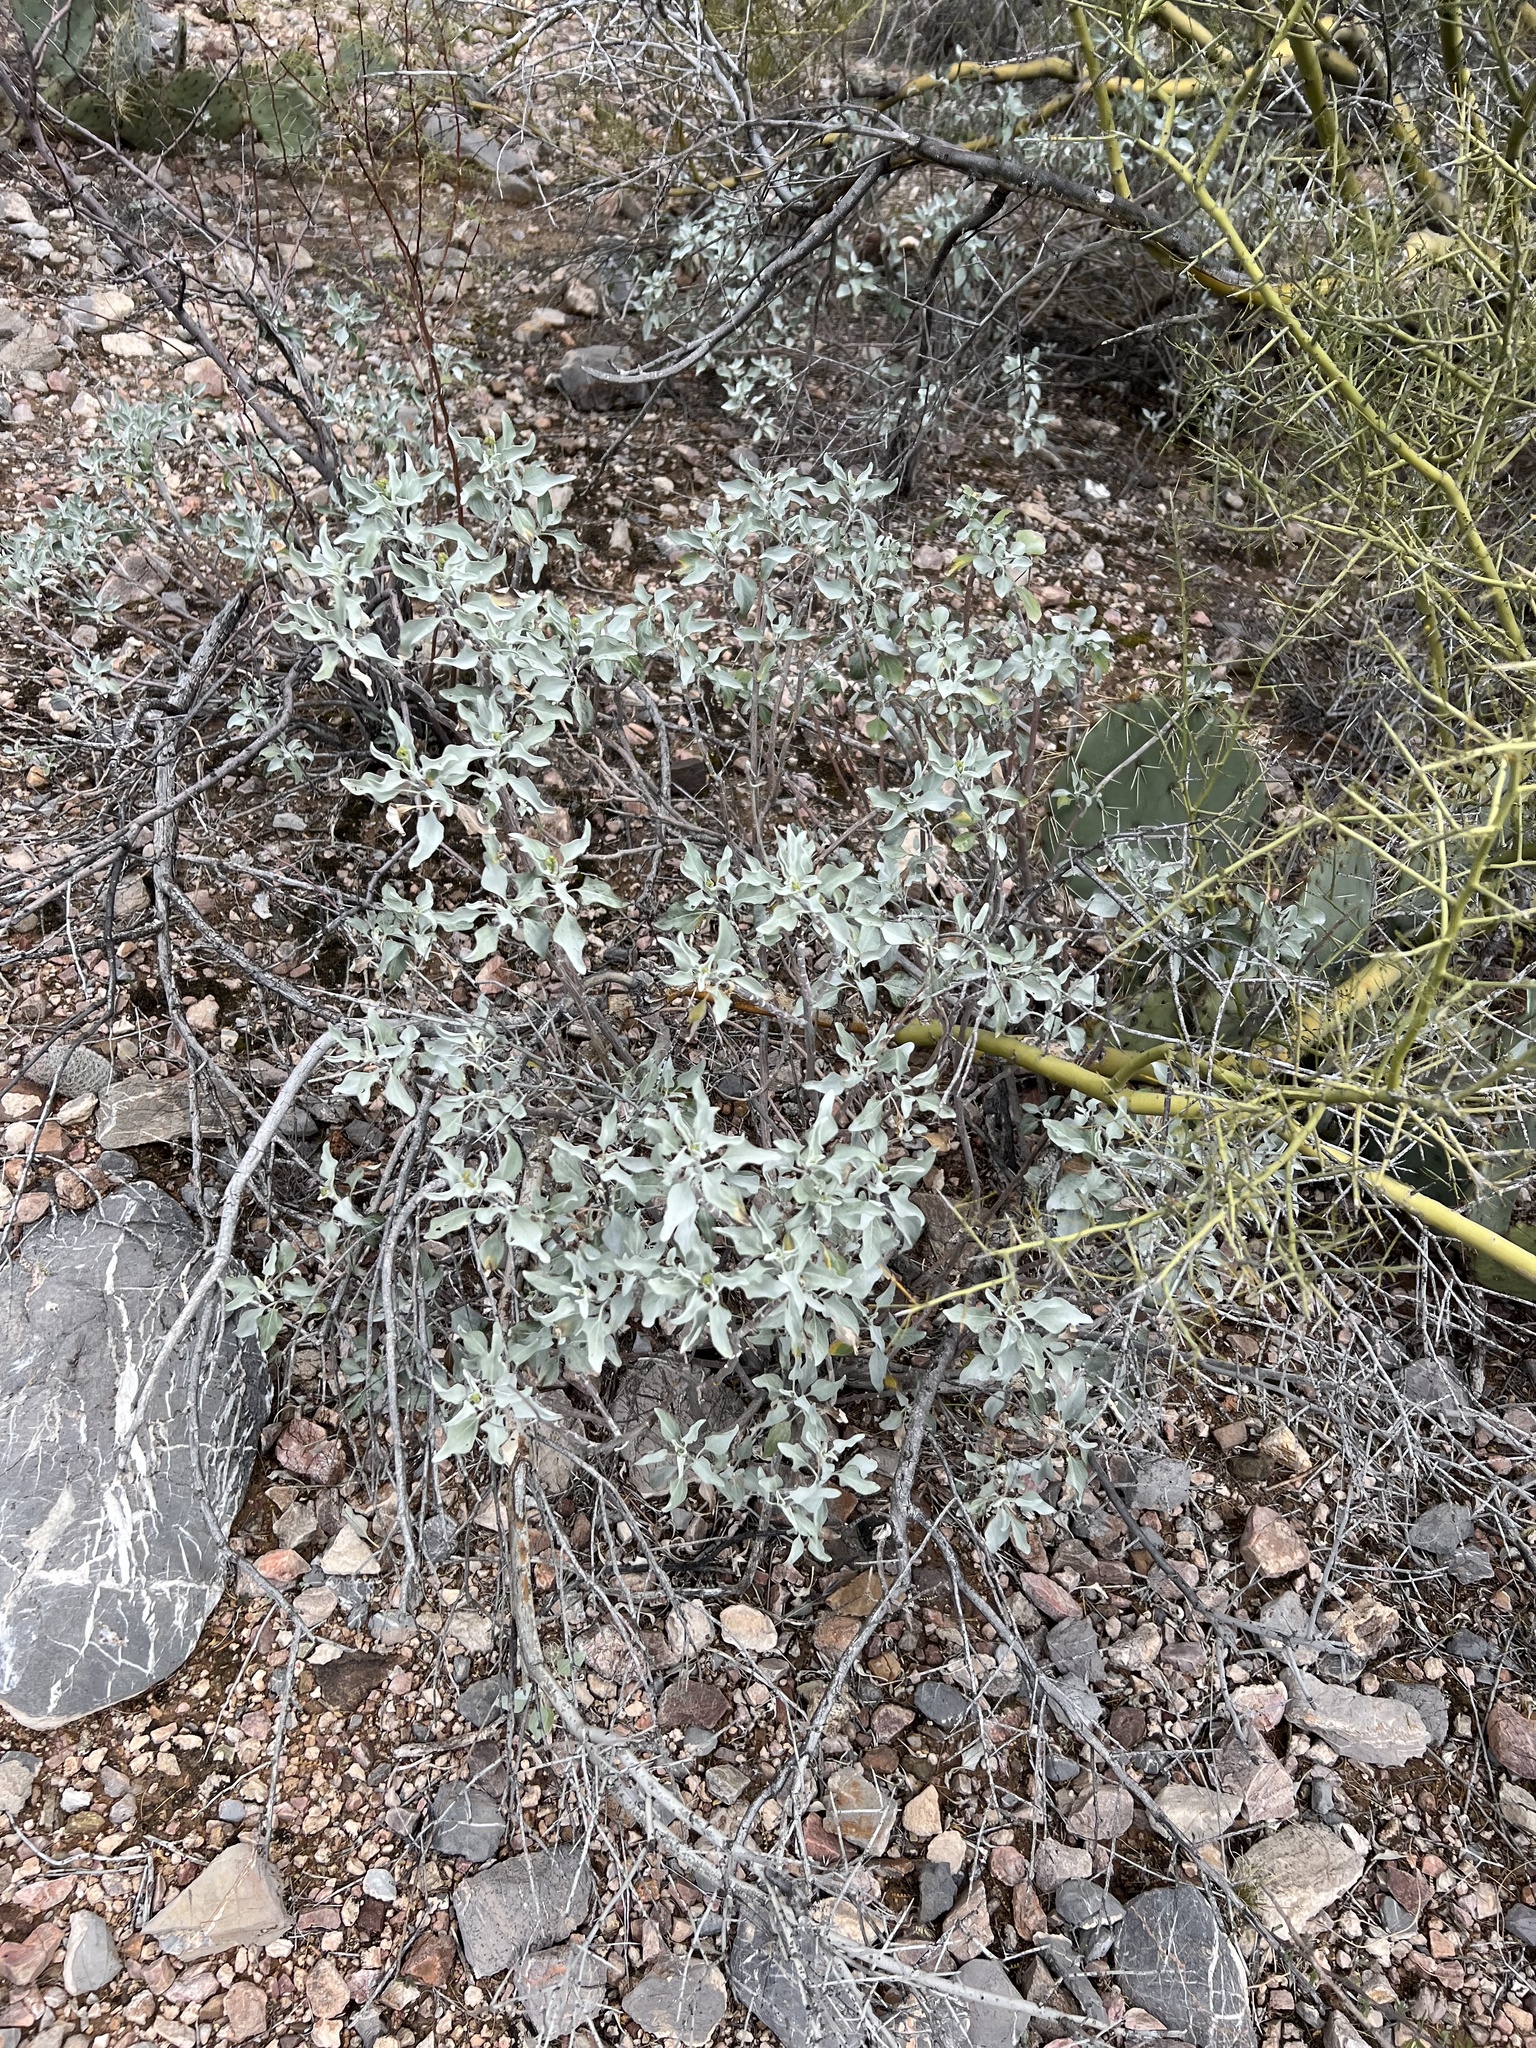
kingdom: Plantae
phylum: Tracheophyta
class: Magnoliopsida
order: Asterales
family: Asteraceae
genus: Encelia
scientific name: Encelia farinosa
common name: Brittlebush
